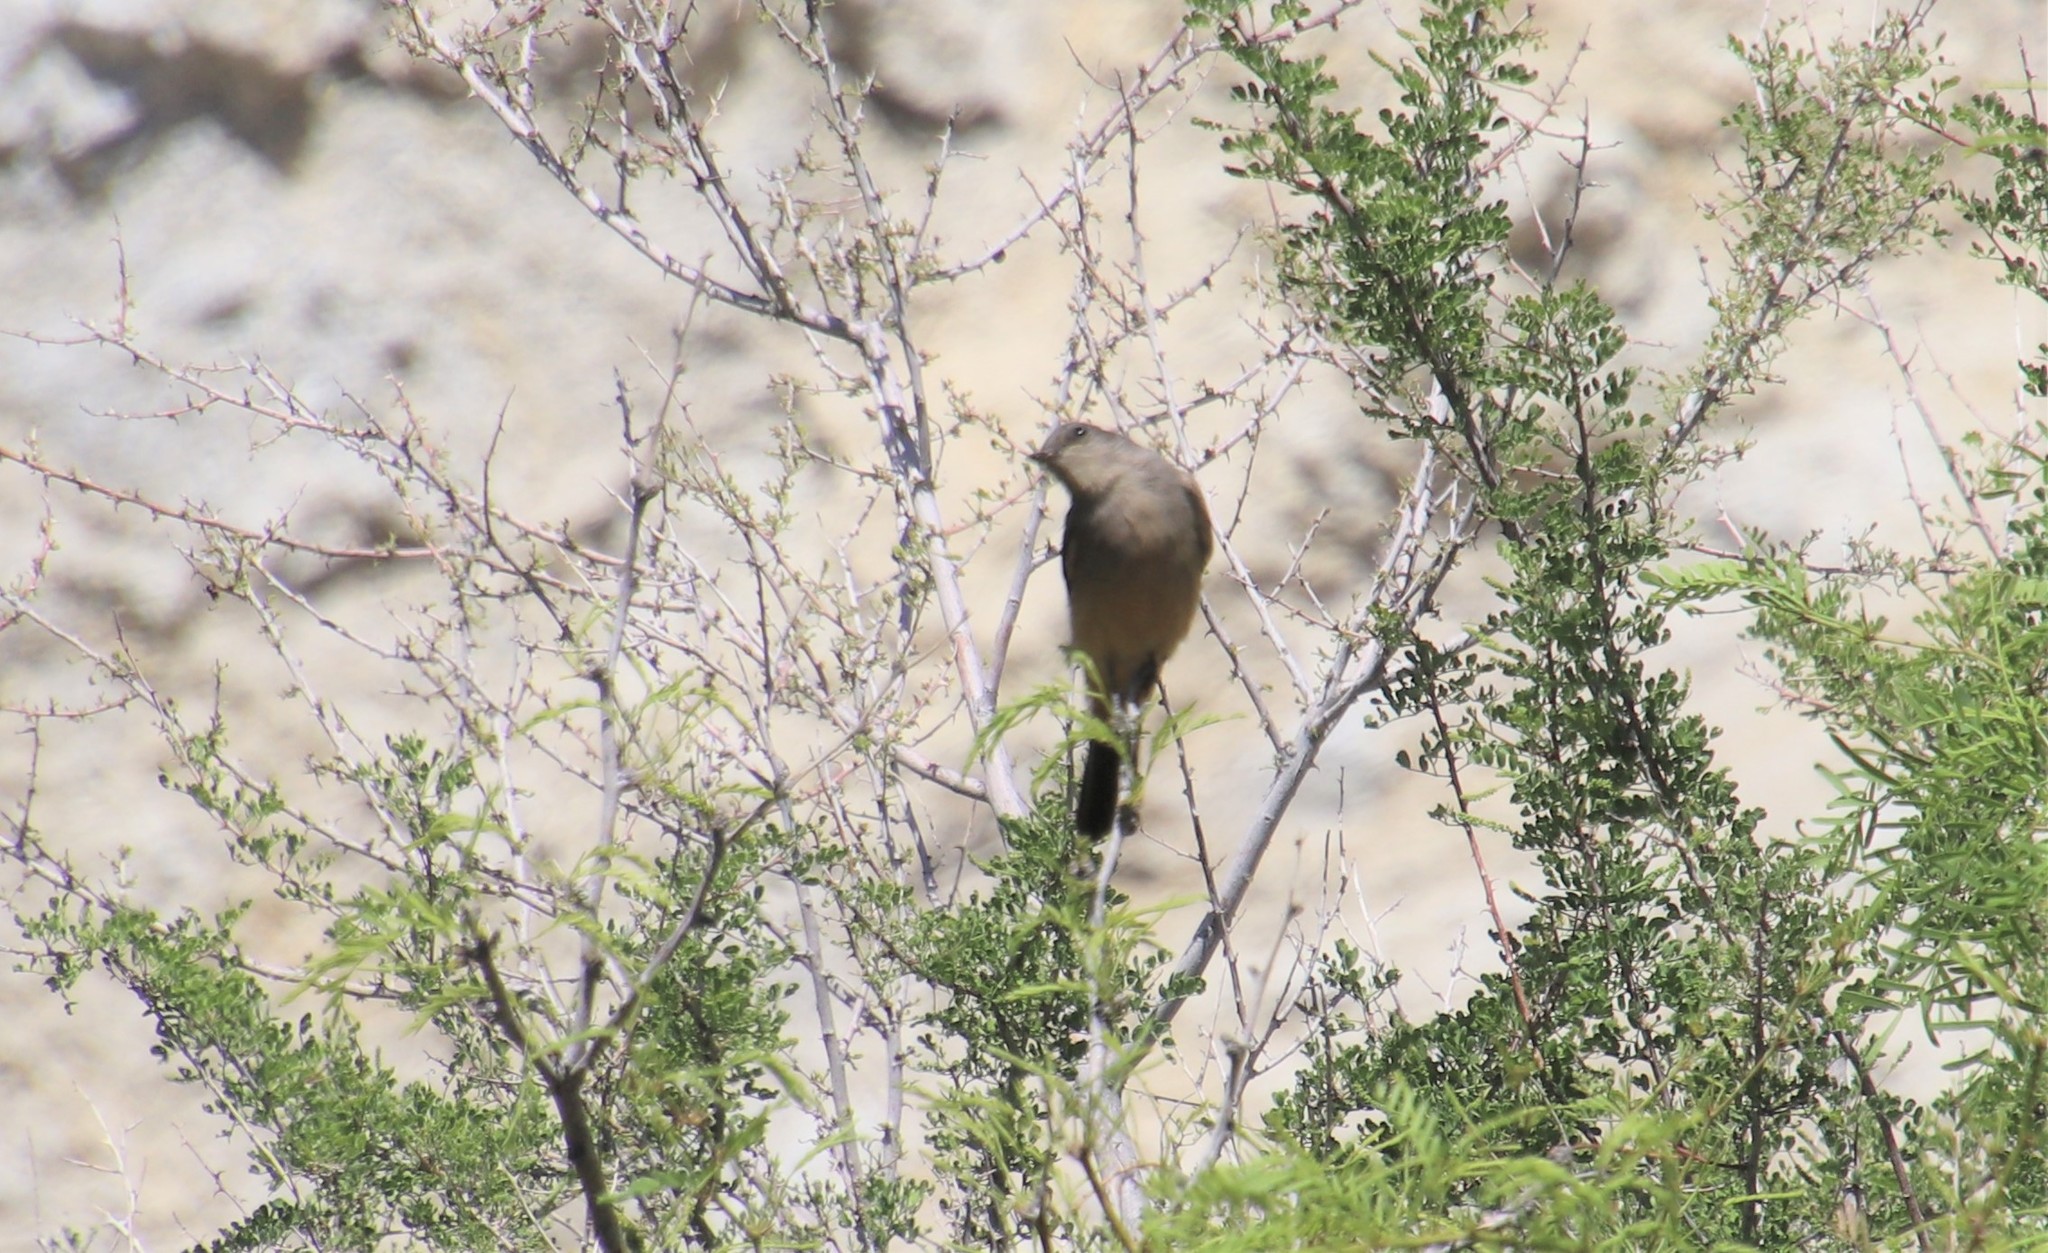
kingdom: Animalia
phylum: Chordata
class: Aves
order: Passeriformes
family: Tyrannidae
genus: Sayornis
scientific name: Sayornis saya
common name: Say's phoebe
